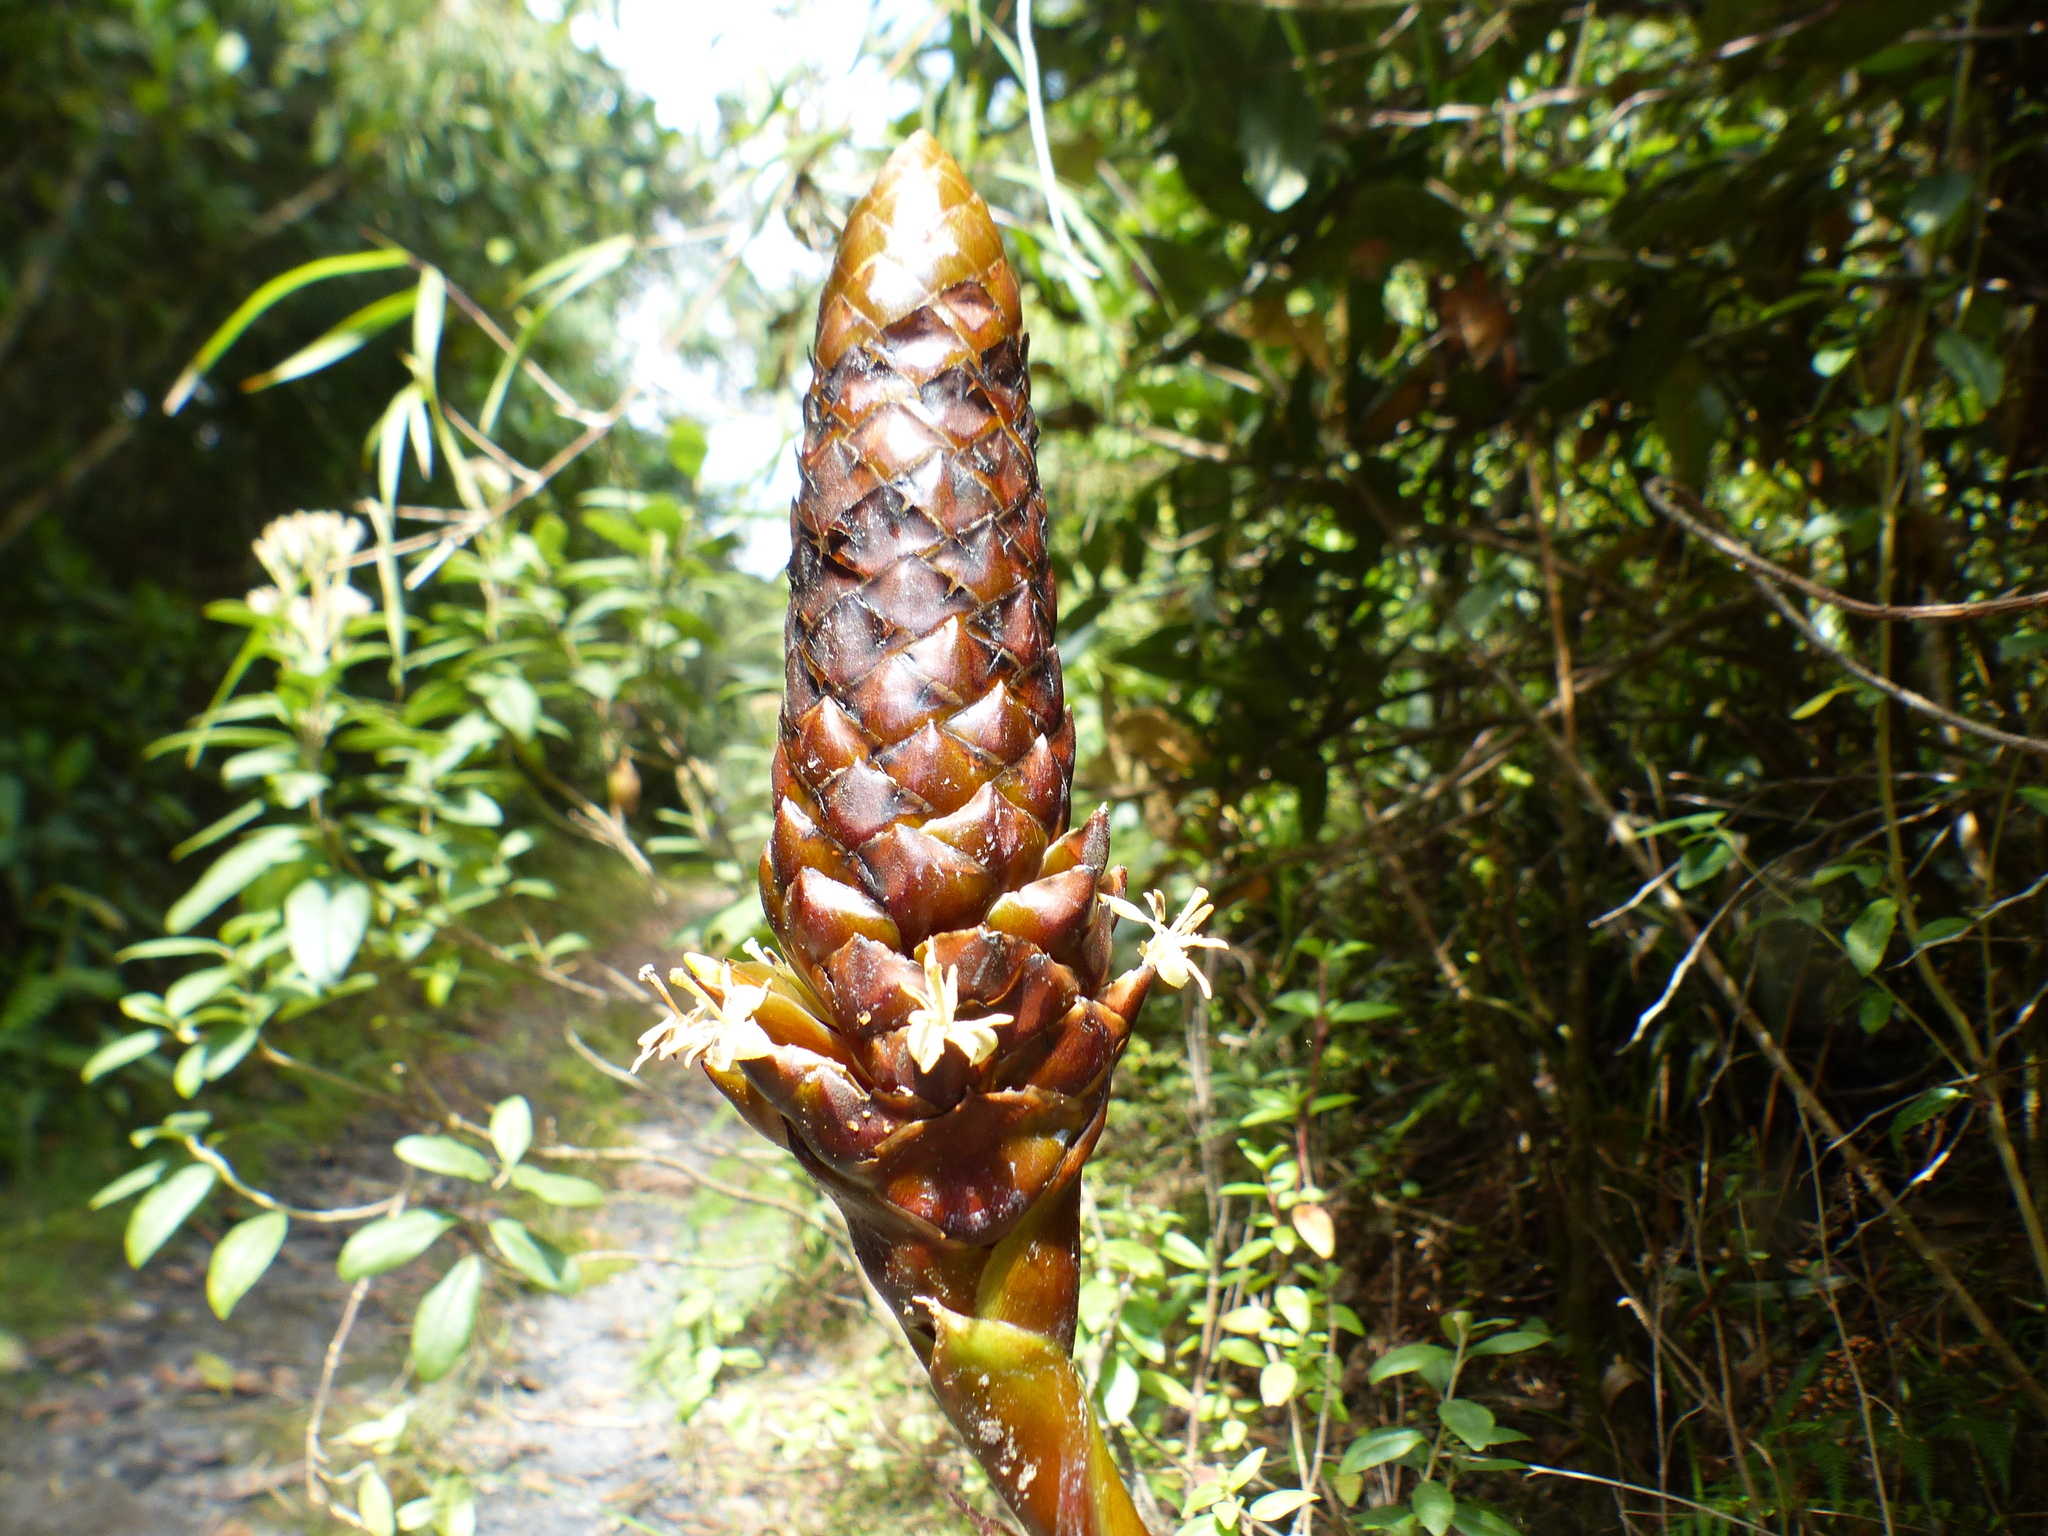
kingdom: Plantae
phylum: Tracheophyta
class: Liliopsida
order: Poales
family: Bromeliaceae
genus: Guzmania
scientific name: Guzmania coriostachya
